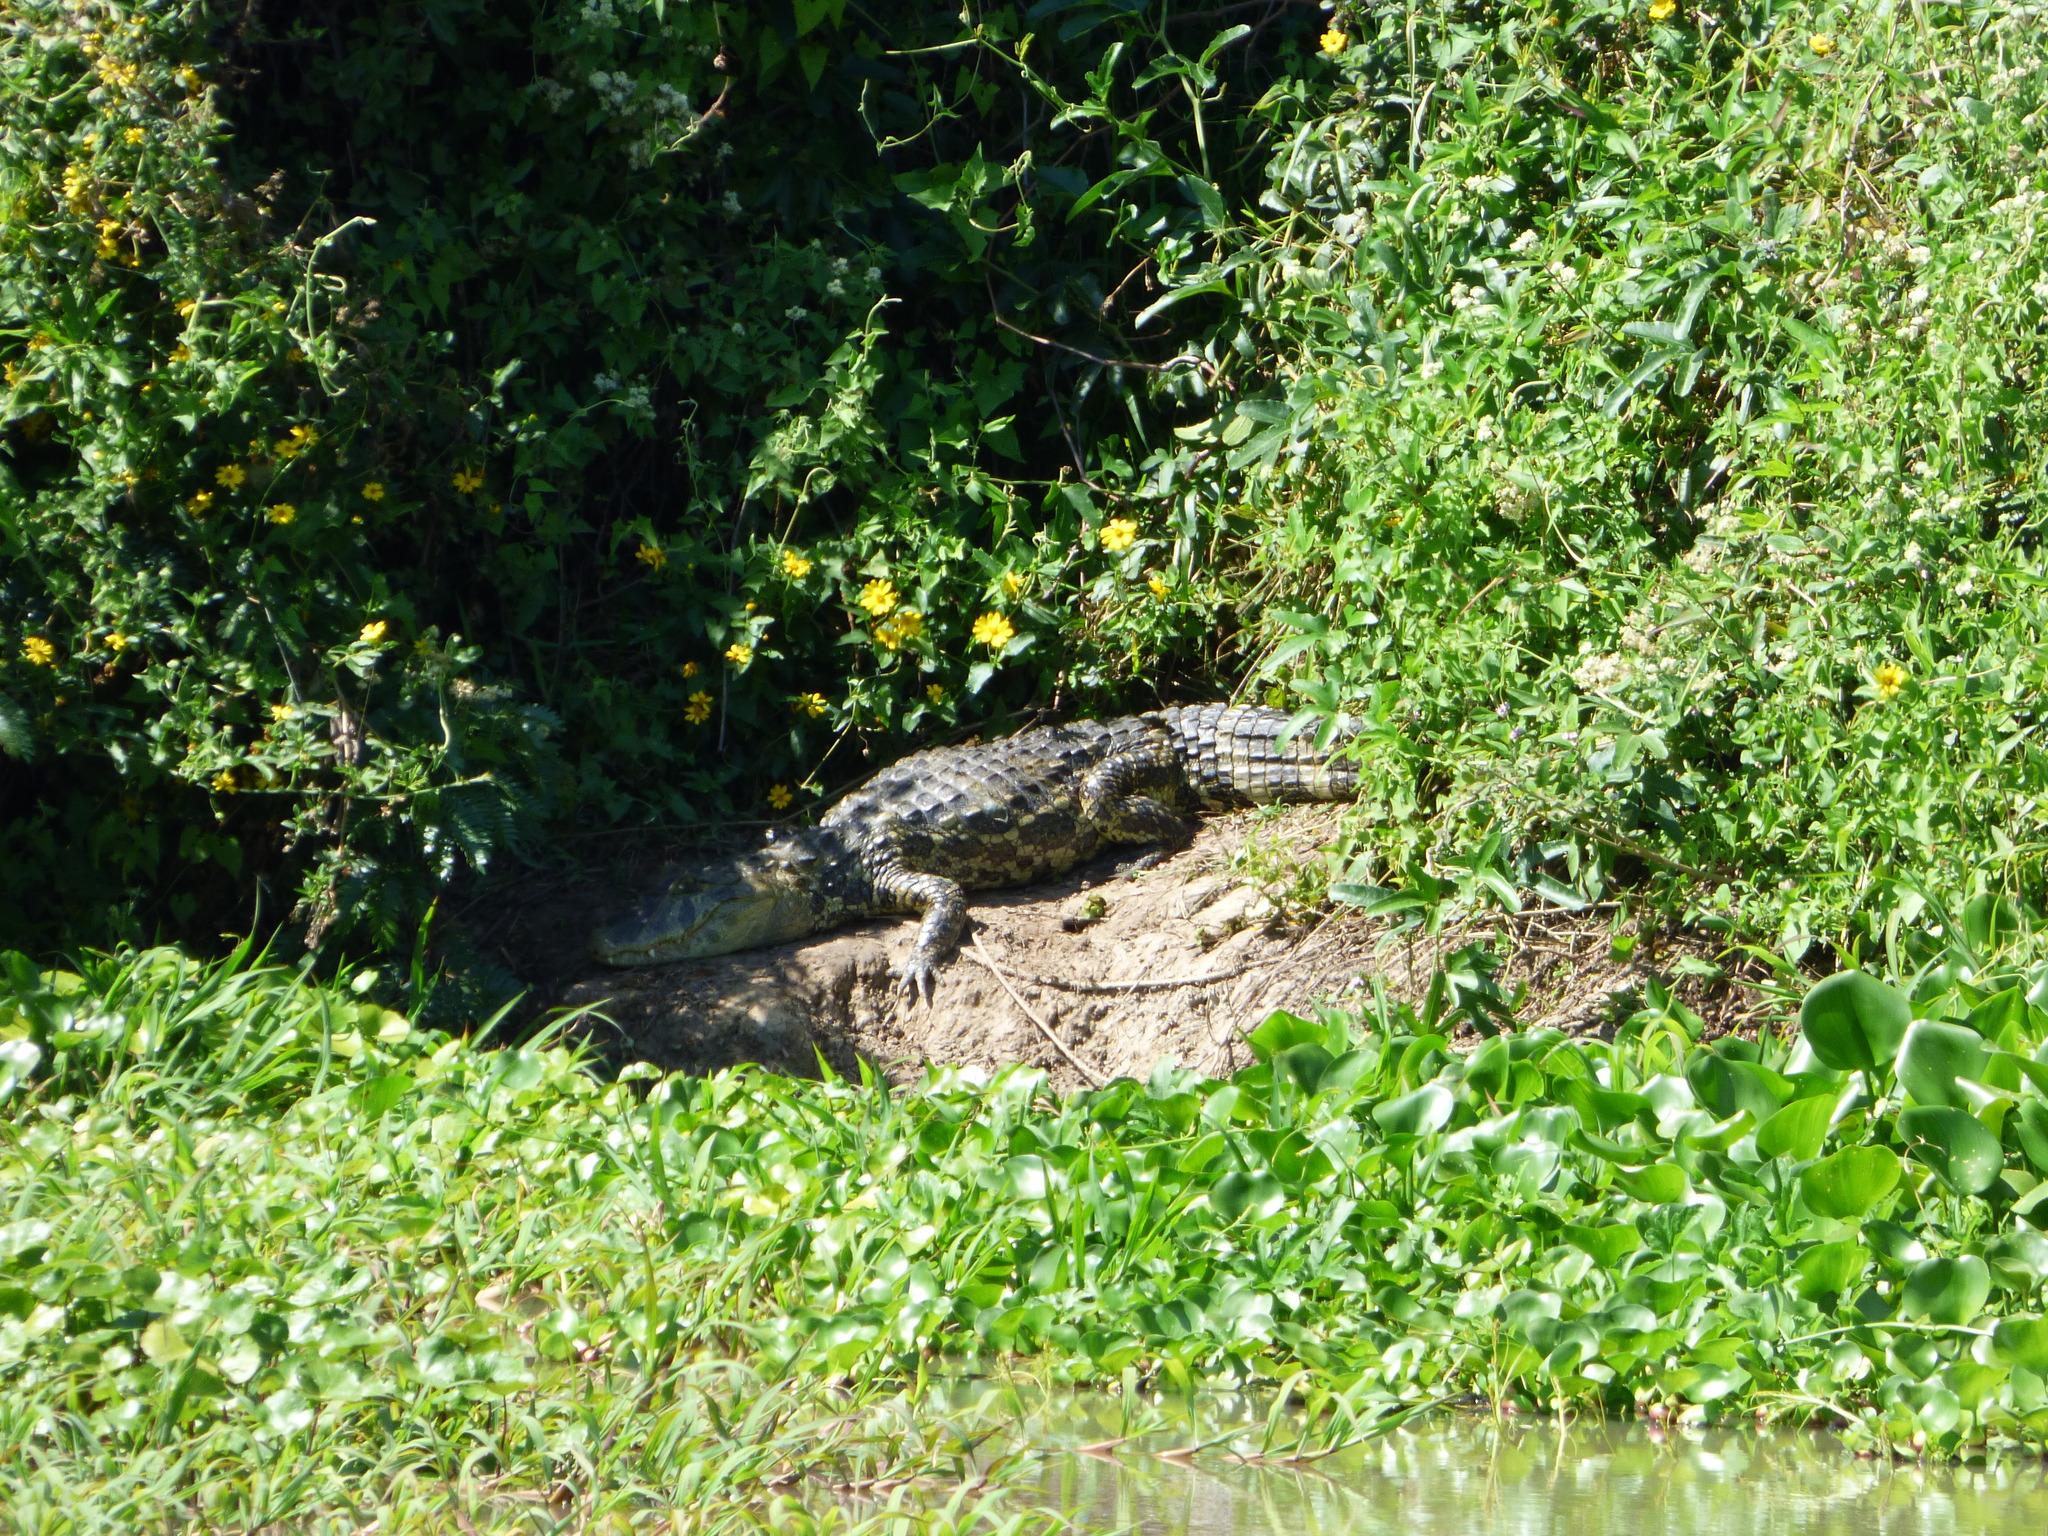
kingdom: Animalia
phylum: Chordata
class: Crocodylia
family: Alligatoridae
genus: Caiman
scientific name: Caiman latirostris
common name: Broad-snouted caiman
